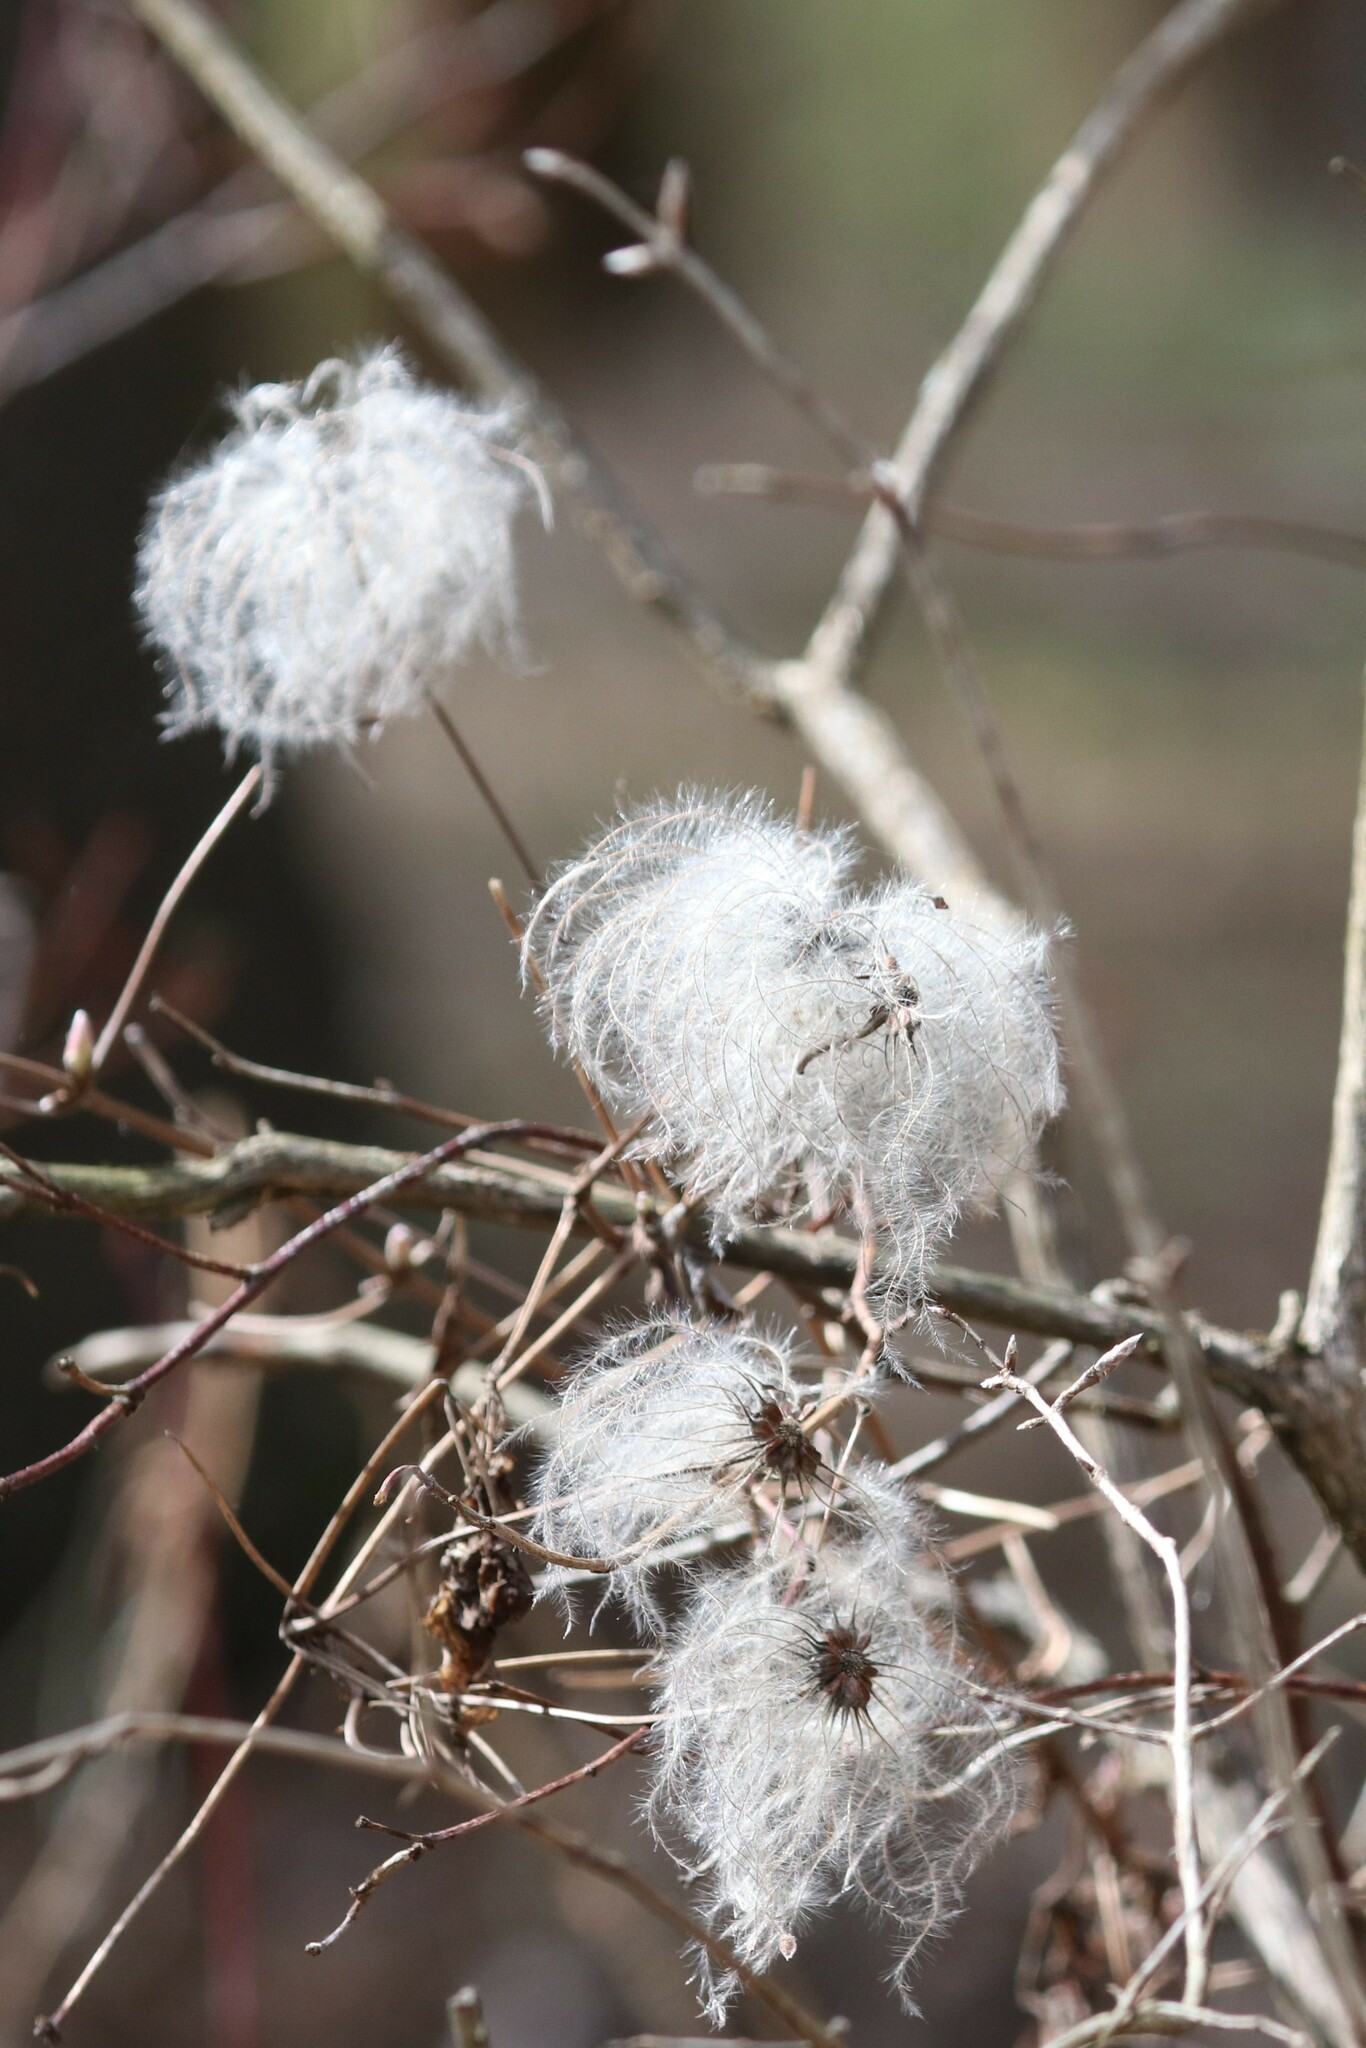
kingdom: Plantae
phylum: Tracheophyta
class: Magnoliopsida
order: Ranunculales
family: Ranunculaceae
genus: Clematis
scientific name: Clematis sibirica
